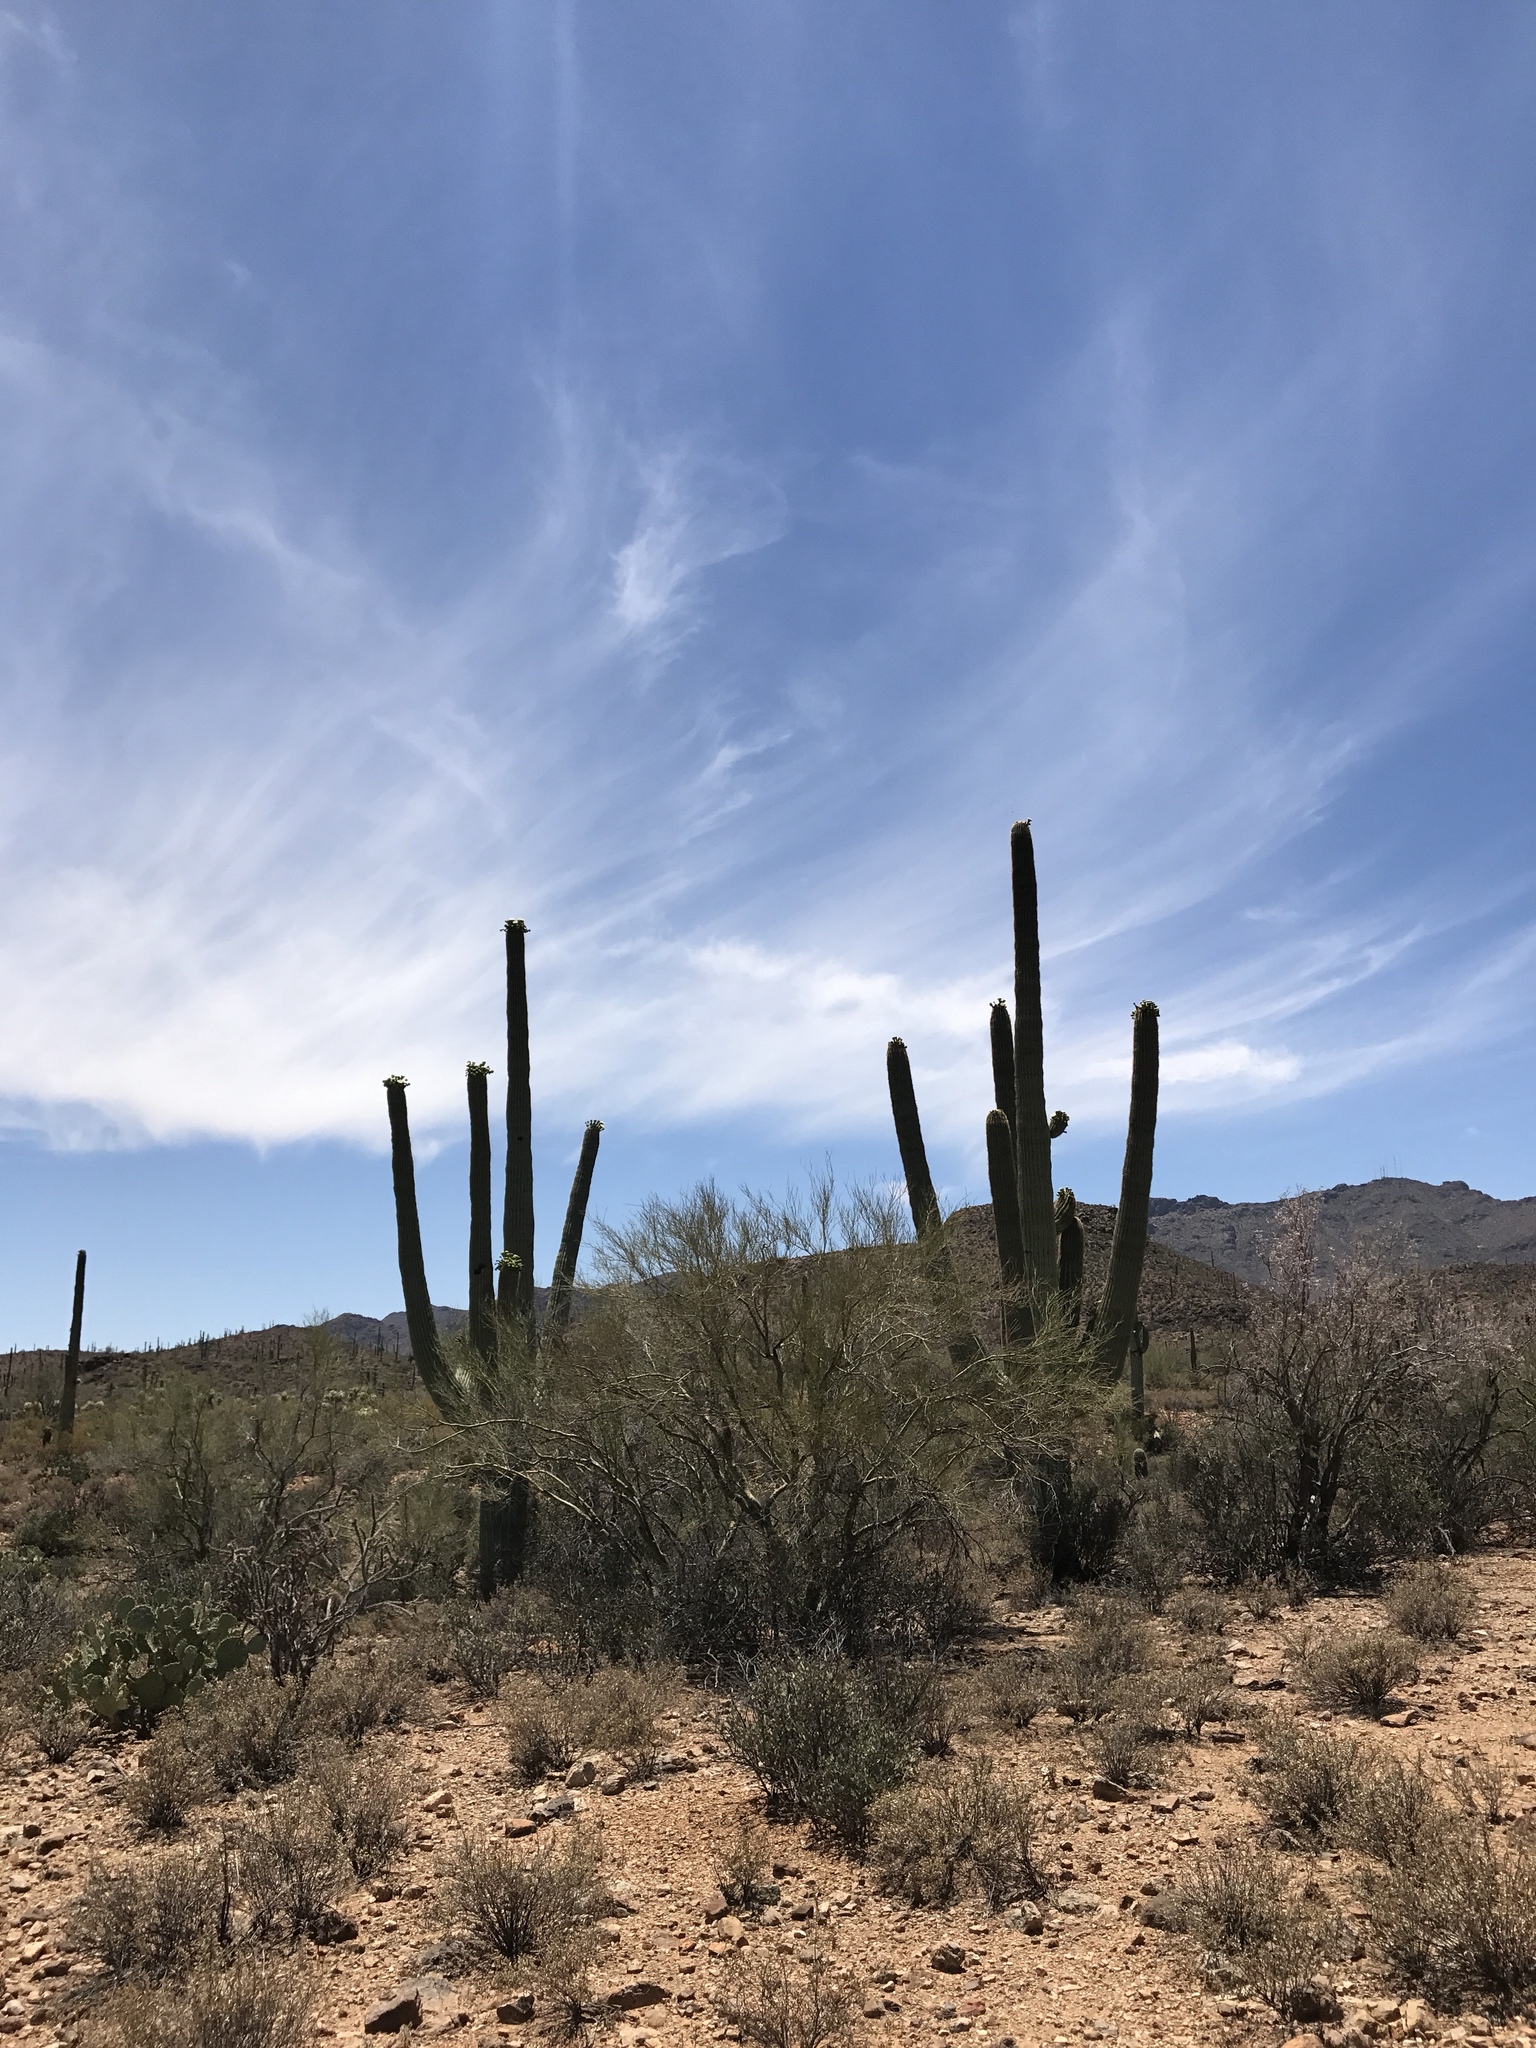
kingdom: Plantae
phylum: Tracheophyta
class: Magnoliopsida
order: Caryophyllales
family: Cactaceae
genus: Carnegiea
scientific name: Carnegiea gigantea
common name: Saguaro
